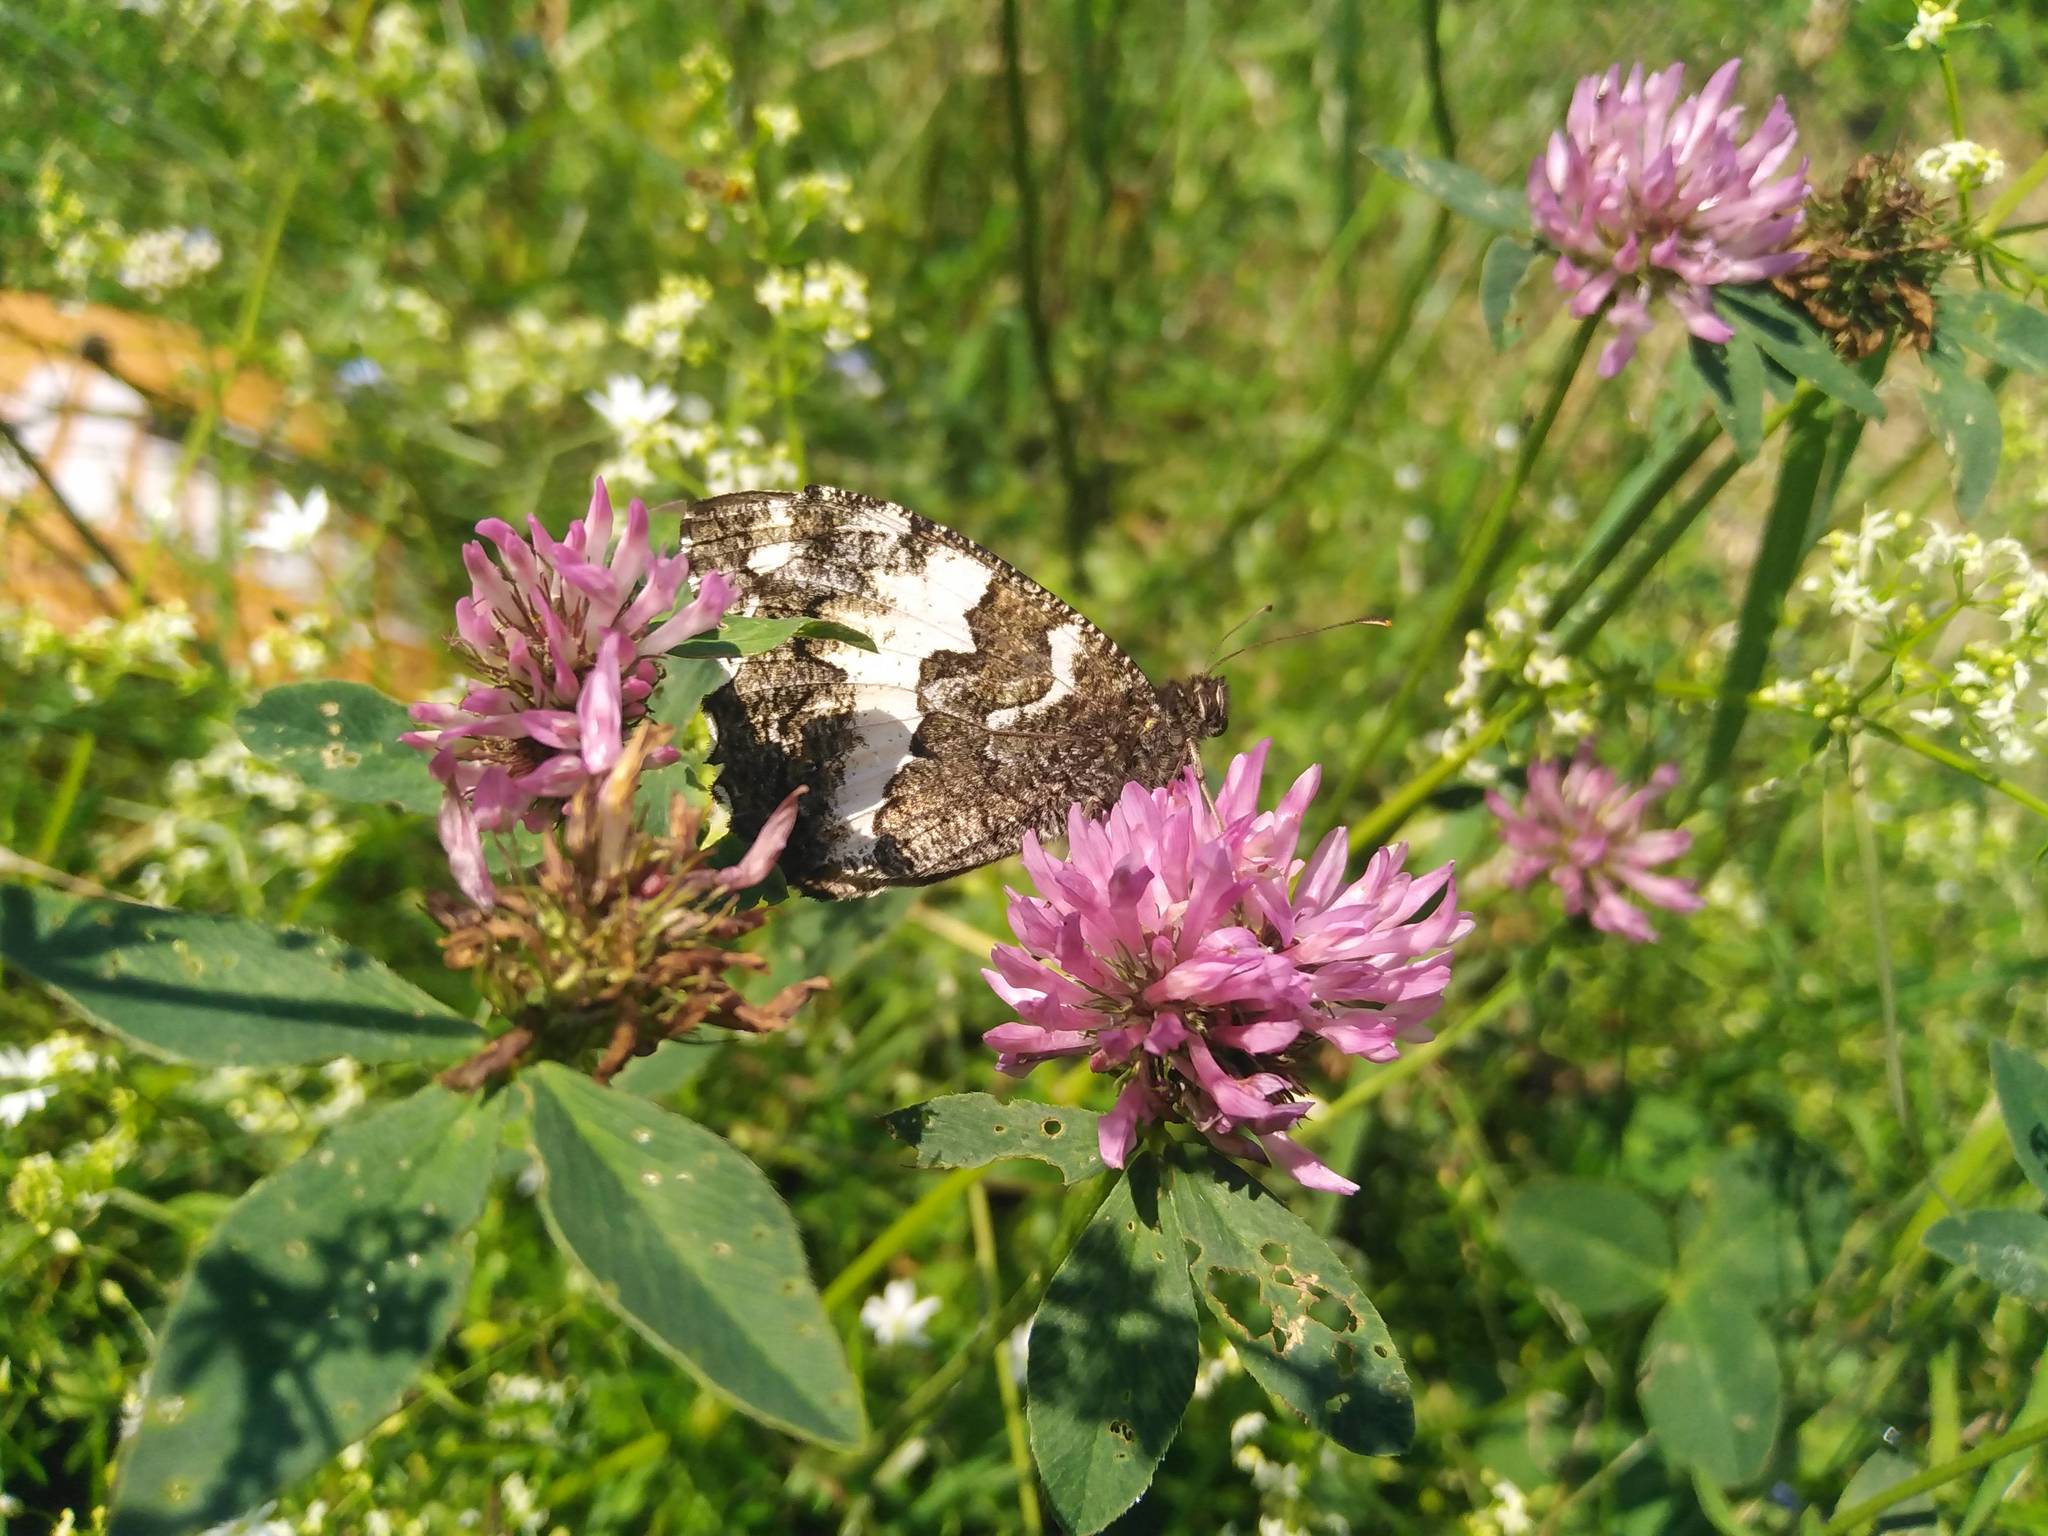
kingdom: Animalia
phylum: Arthropoda
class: Insecta
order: Lepidoptera
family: Lycaenidae
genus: Loweia
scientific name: Loweia tityrus
